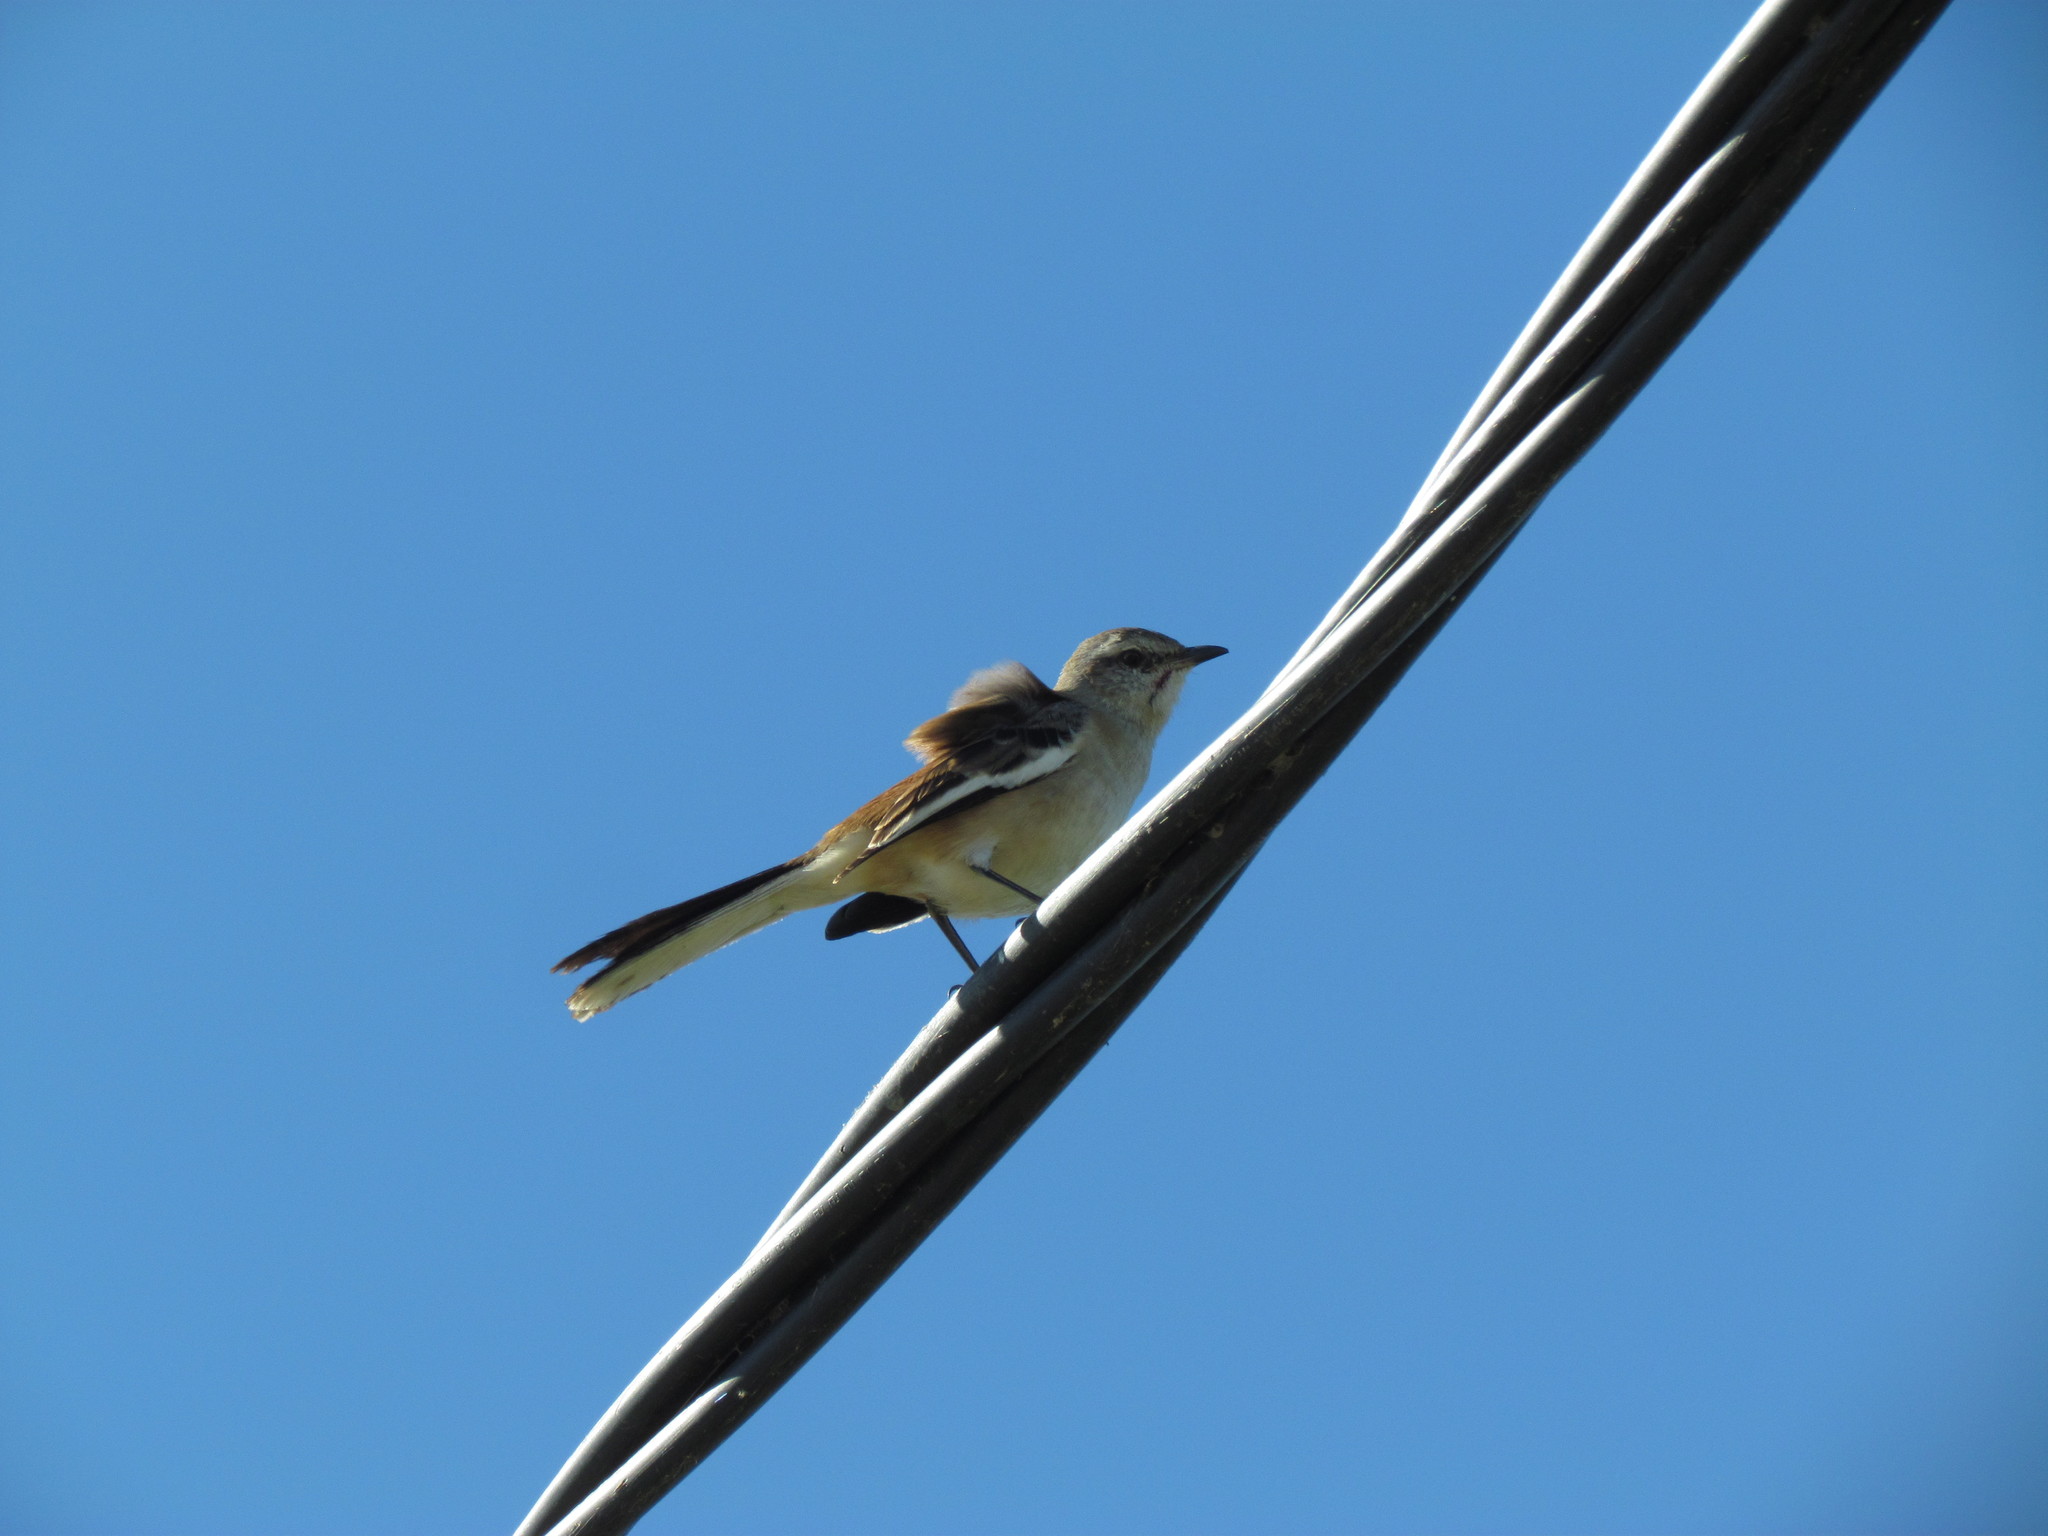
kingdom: Animalia
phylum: Chordata
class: Aves
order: Passeriformes
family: Mimidae
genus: Mimus
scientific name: Mimus triurus
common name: White-banded mockingbird
